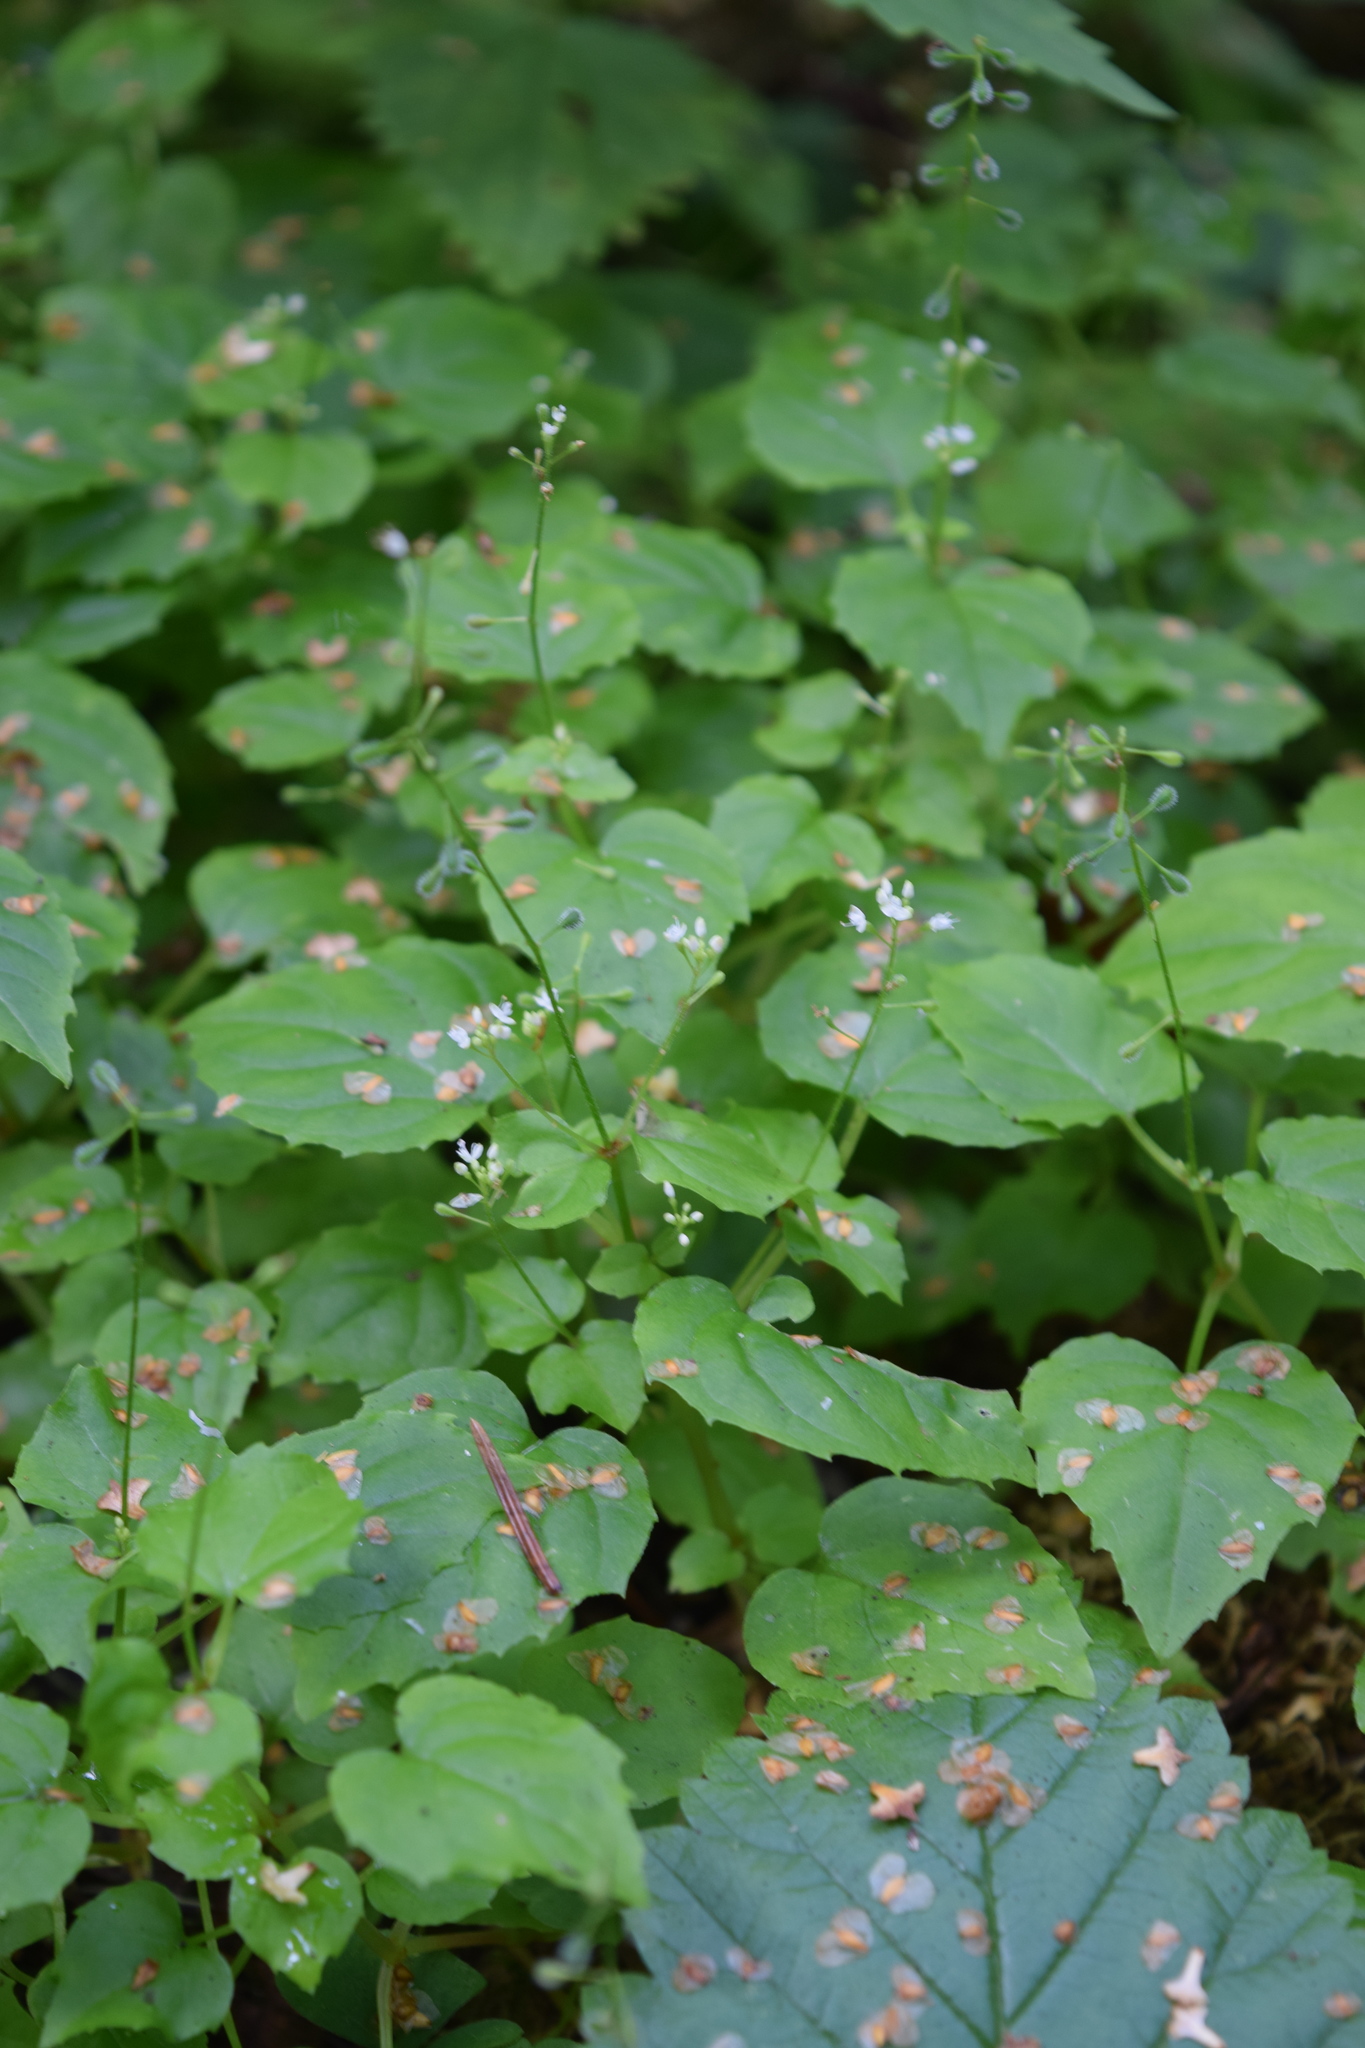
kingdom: Plantae
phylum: Tracheophyta
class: Magnoliopsida
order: Myrtales
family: Onagraceae
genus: Circaea
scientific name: Circaea alpina
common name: Alpine enchanter's-nightshade
